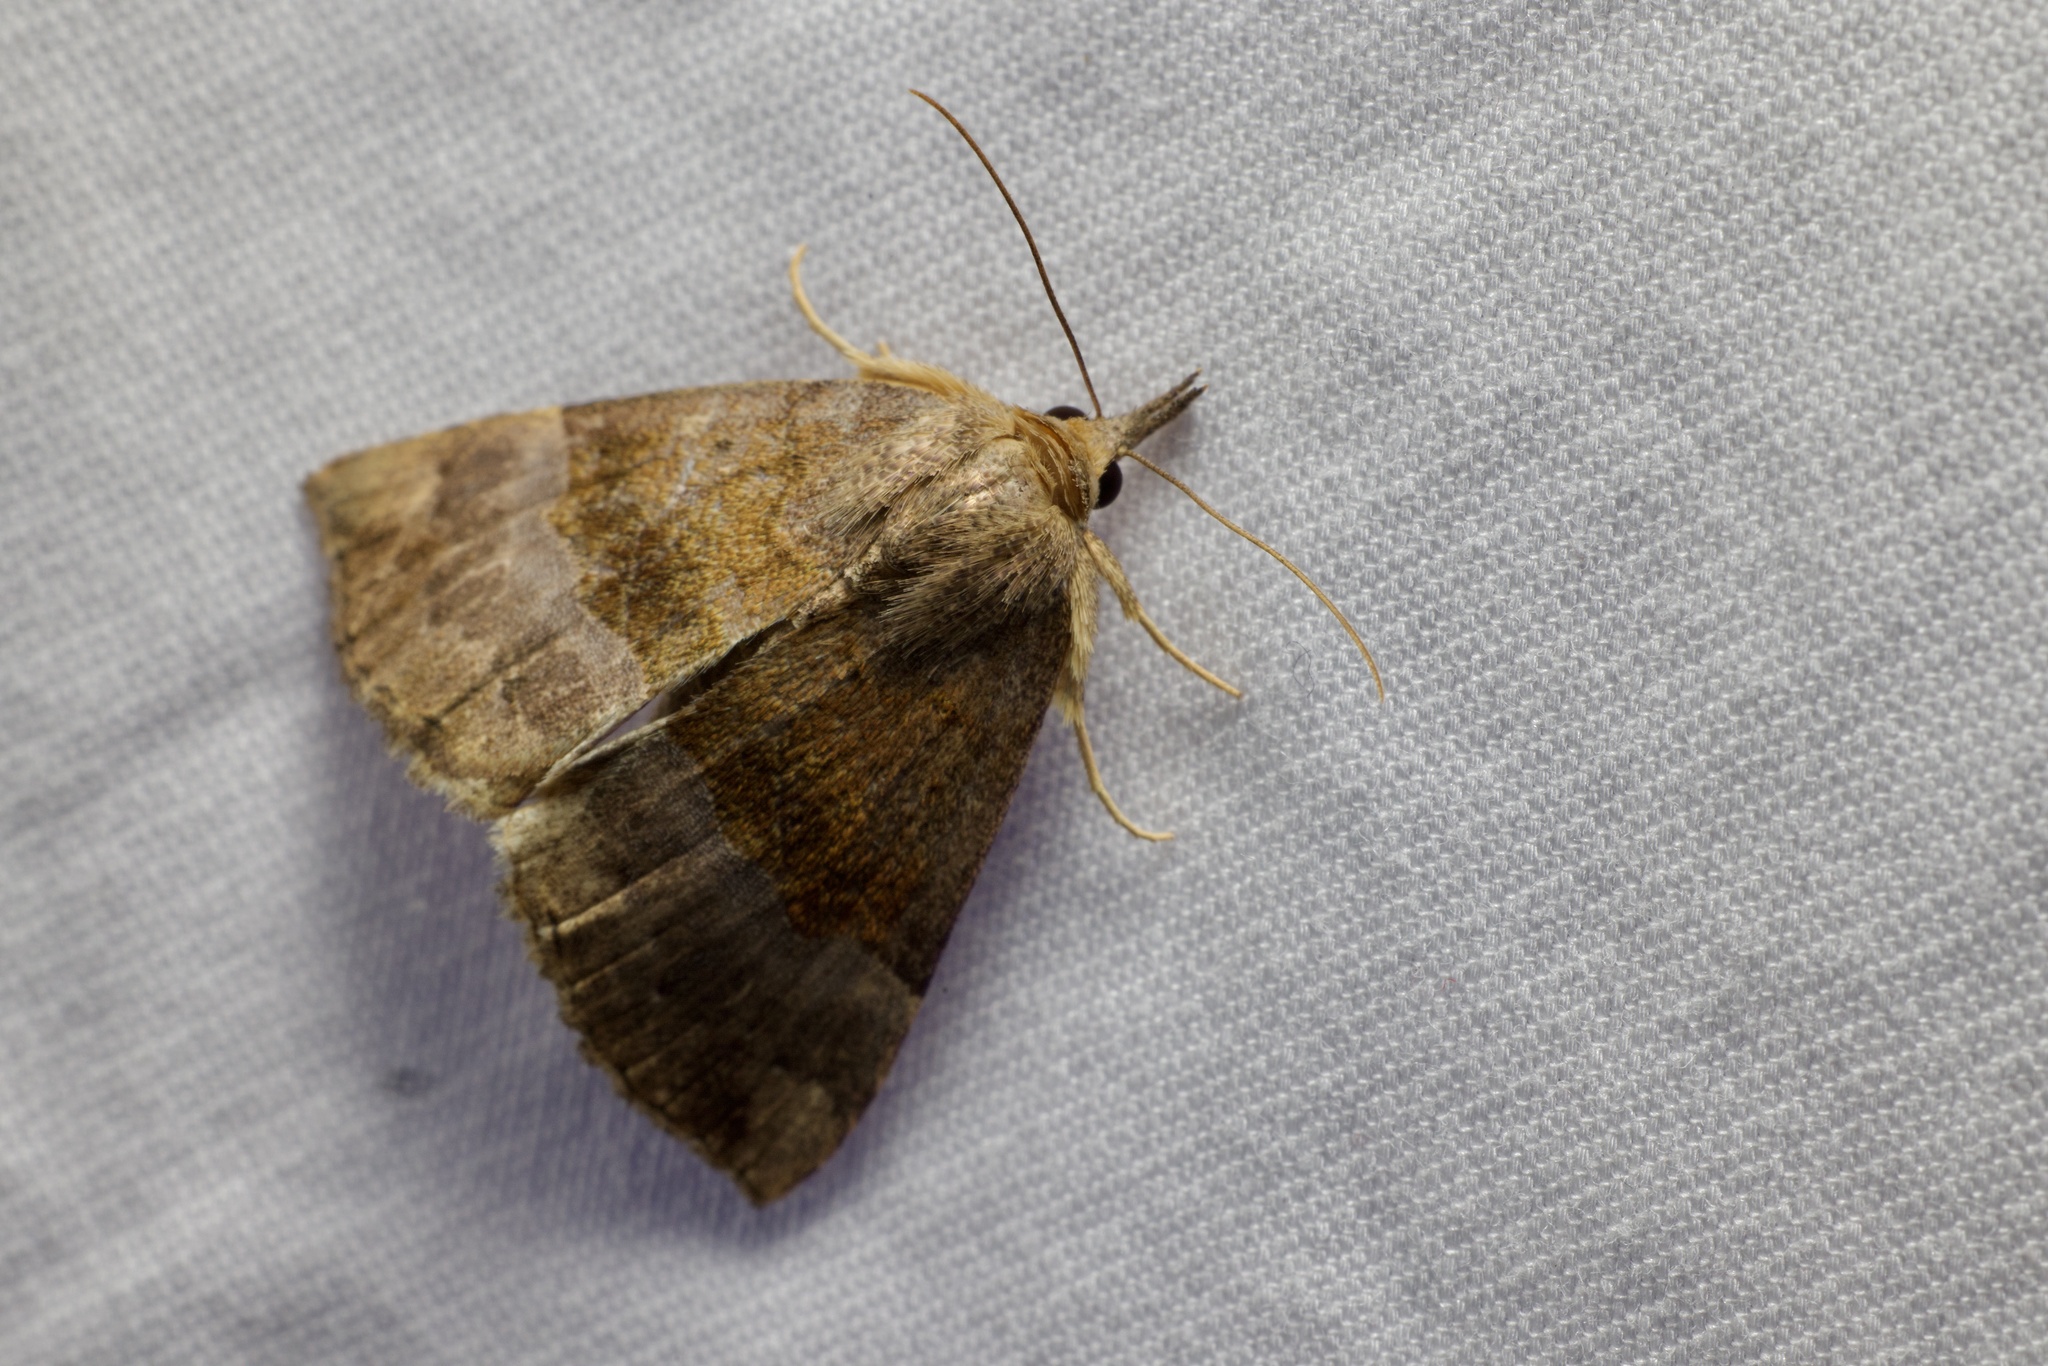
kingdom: Animalia
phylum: Arthropoda
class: Insecta
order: Lepidoptera
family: Erebidae
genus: Hypena
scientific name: Hypena madefactalis
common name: Gray-edged snout
